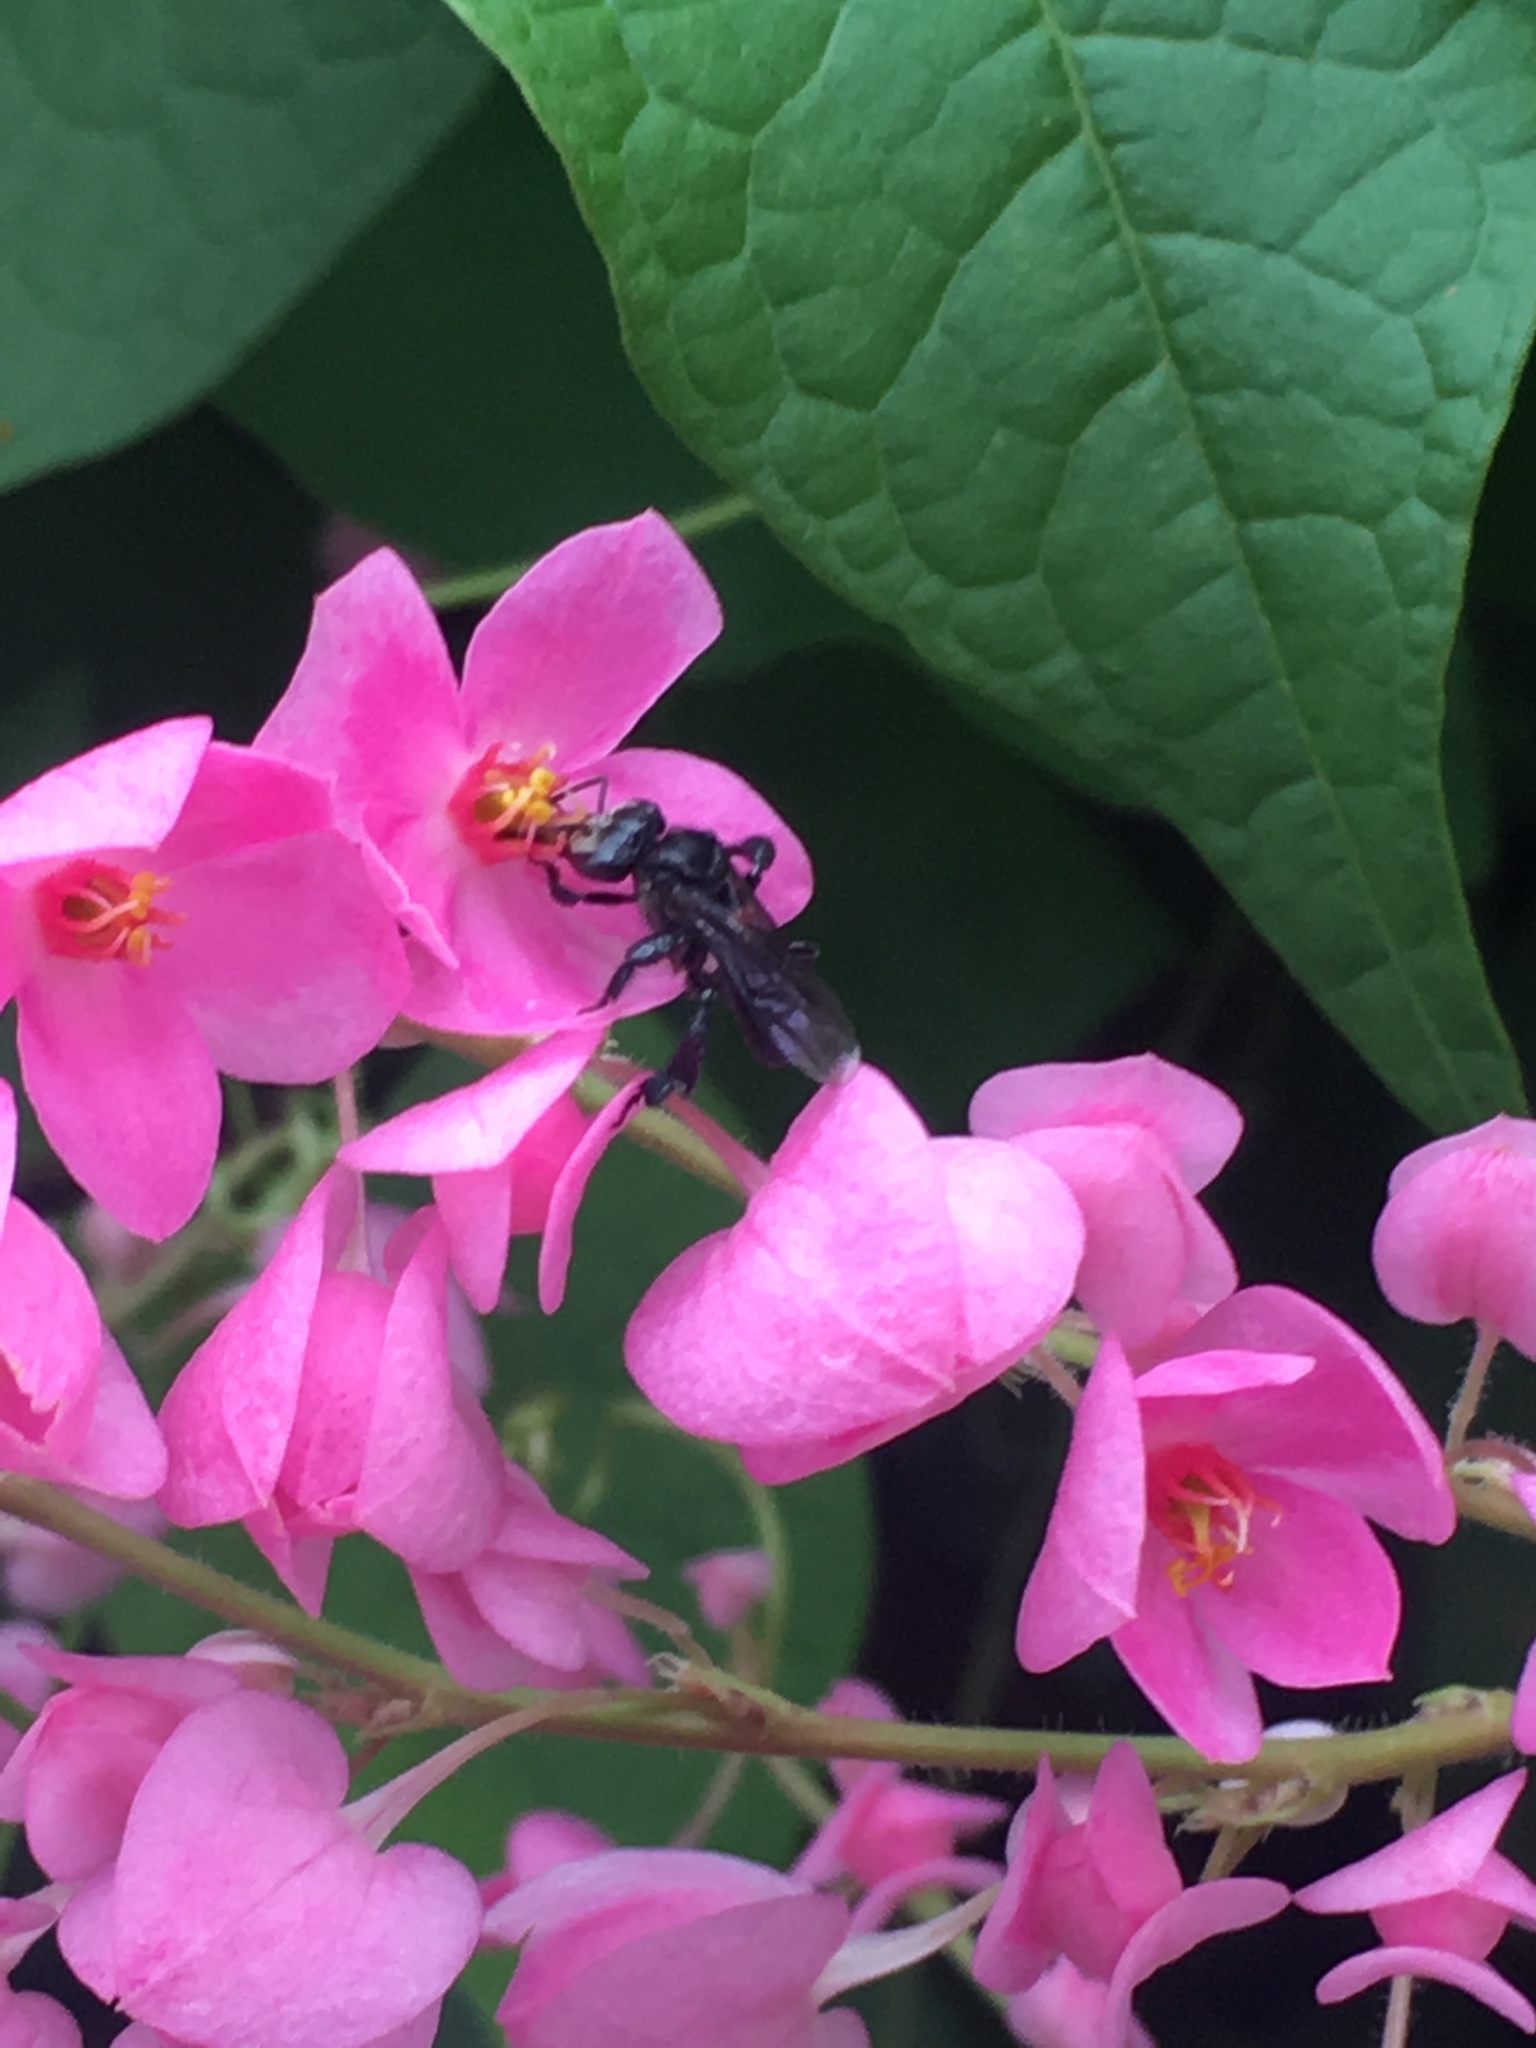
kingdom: Animalia
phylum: Arthropoda
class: Insecta
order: Hymenoptera
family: Apidae
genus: Heterotrigona
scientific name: Heterotrigona itama
